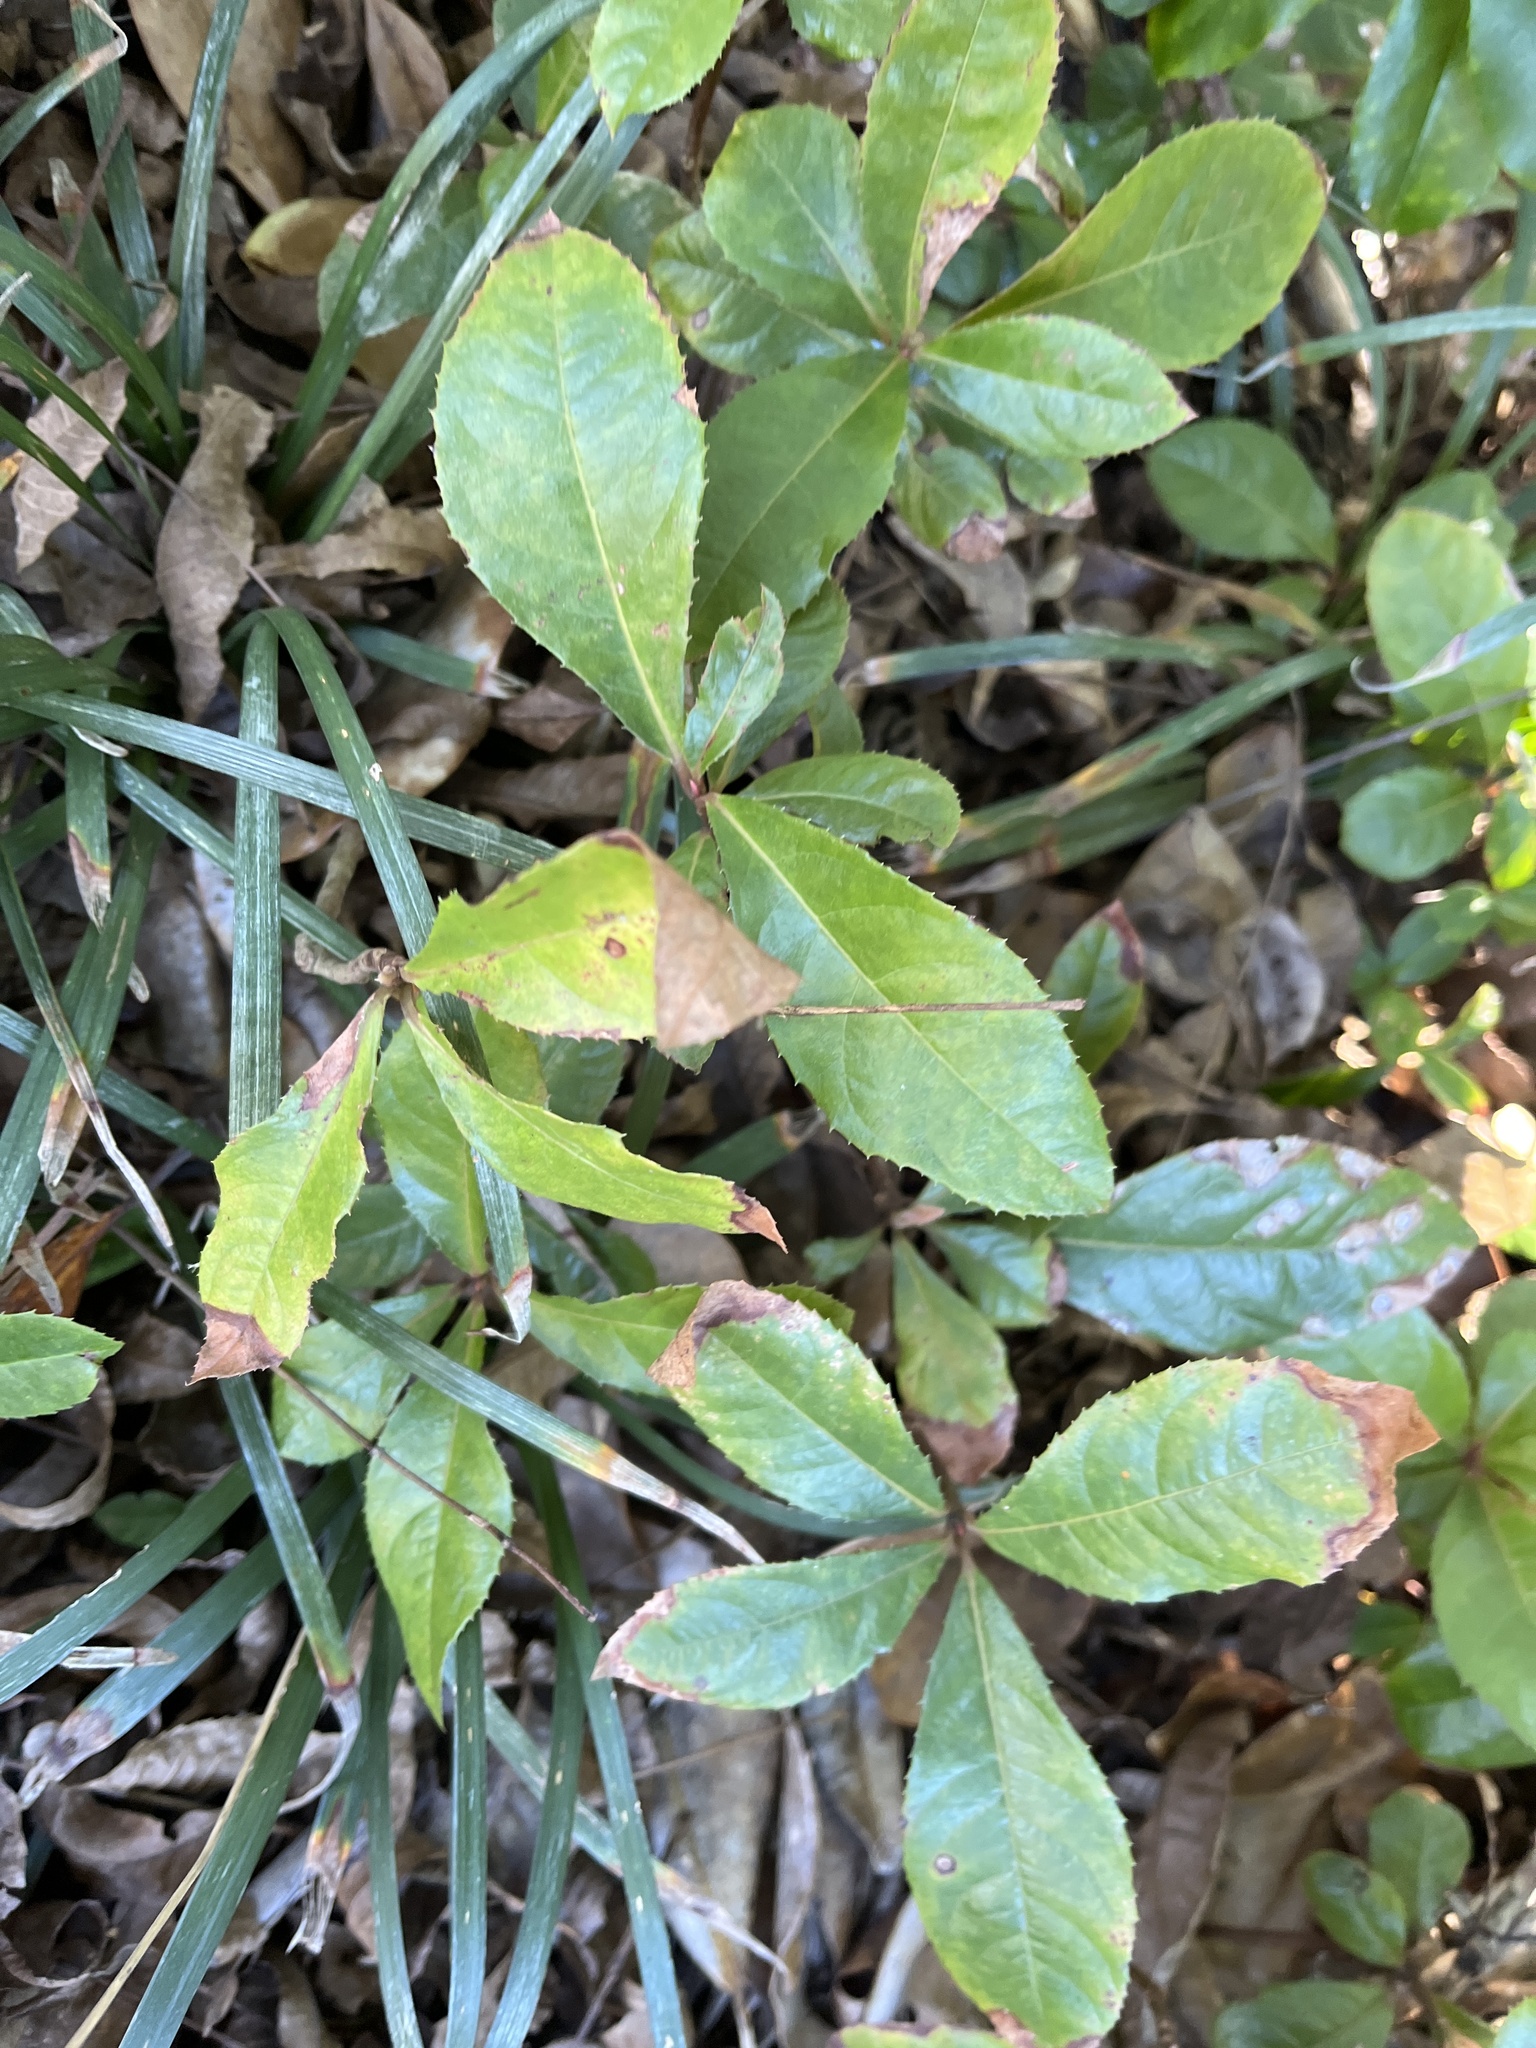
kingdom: Plantae
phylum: Tracheophyta
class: Magnoliopsida
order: Ericales
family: Primulaceae
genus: Ardisia
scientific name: Ardisia japonica
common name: Marlberry
